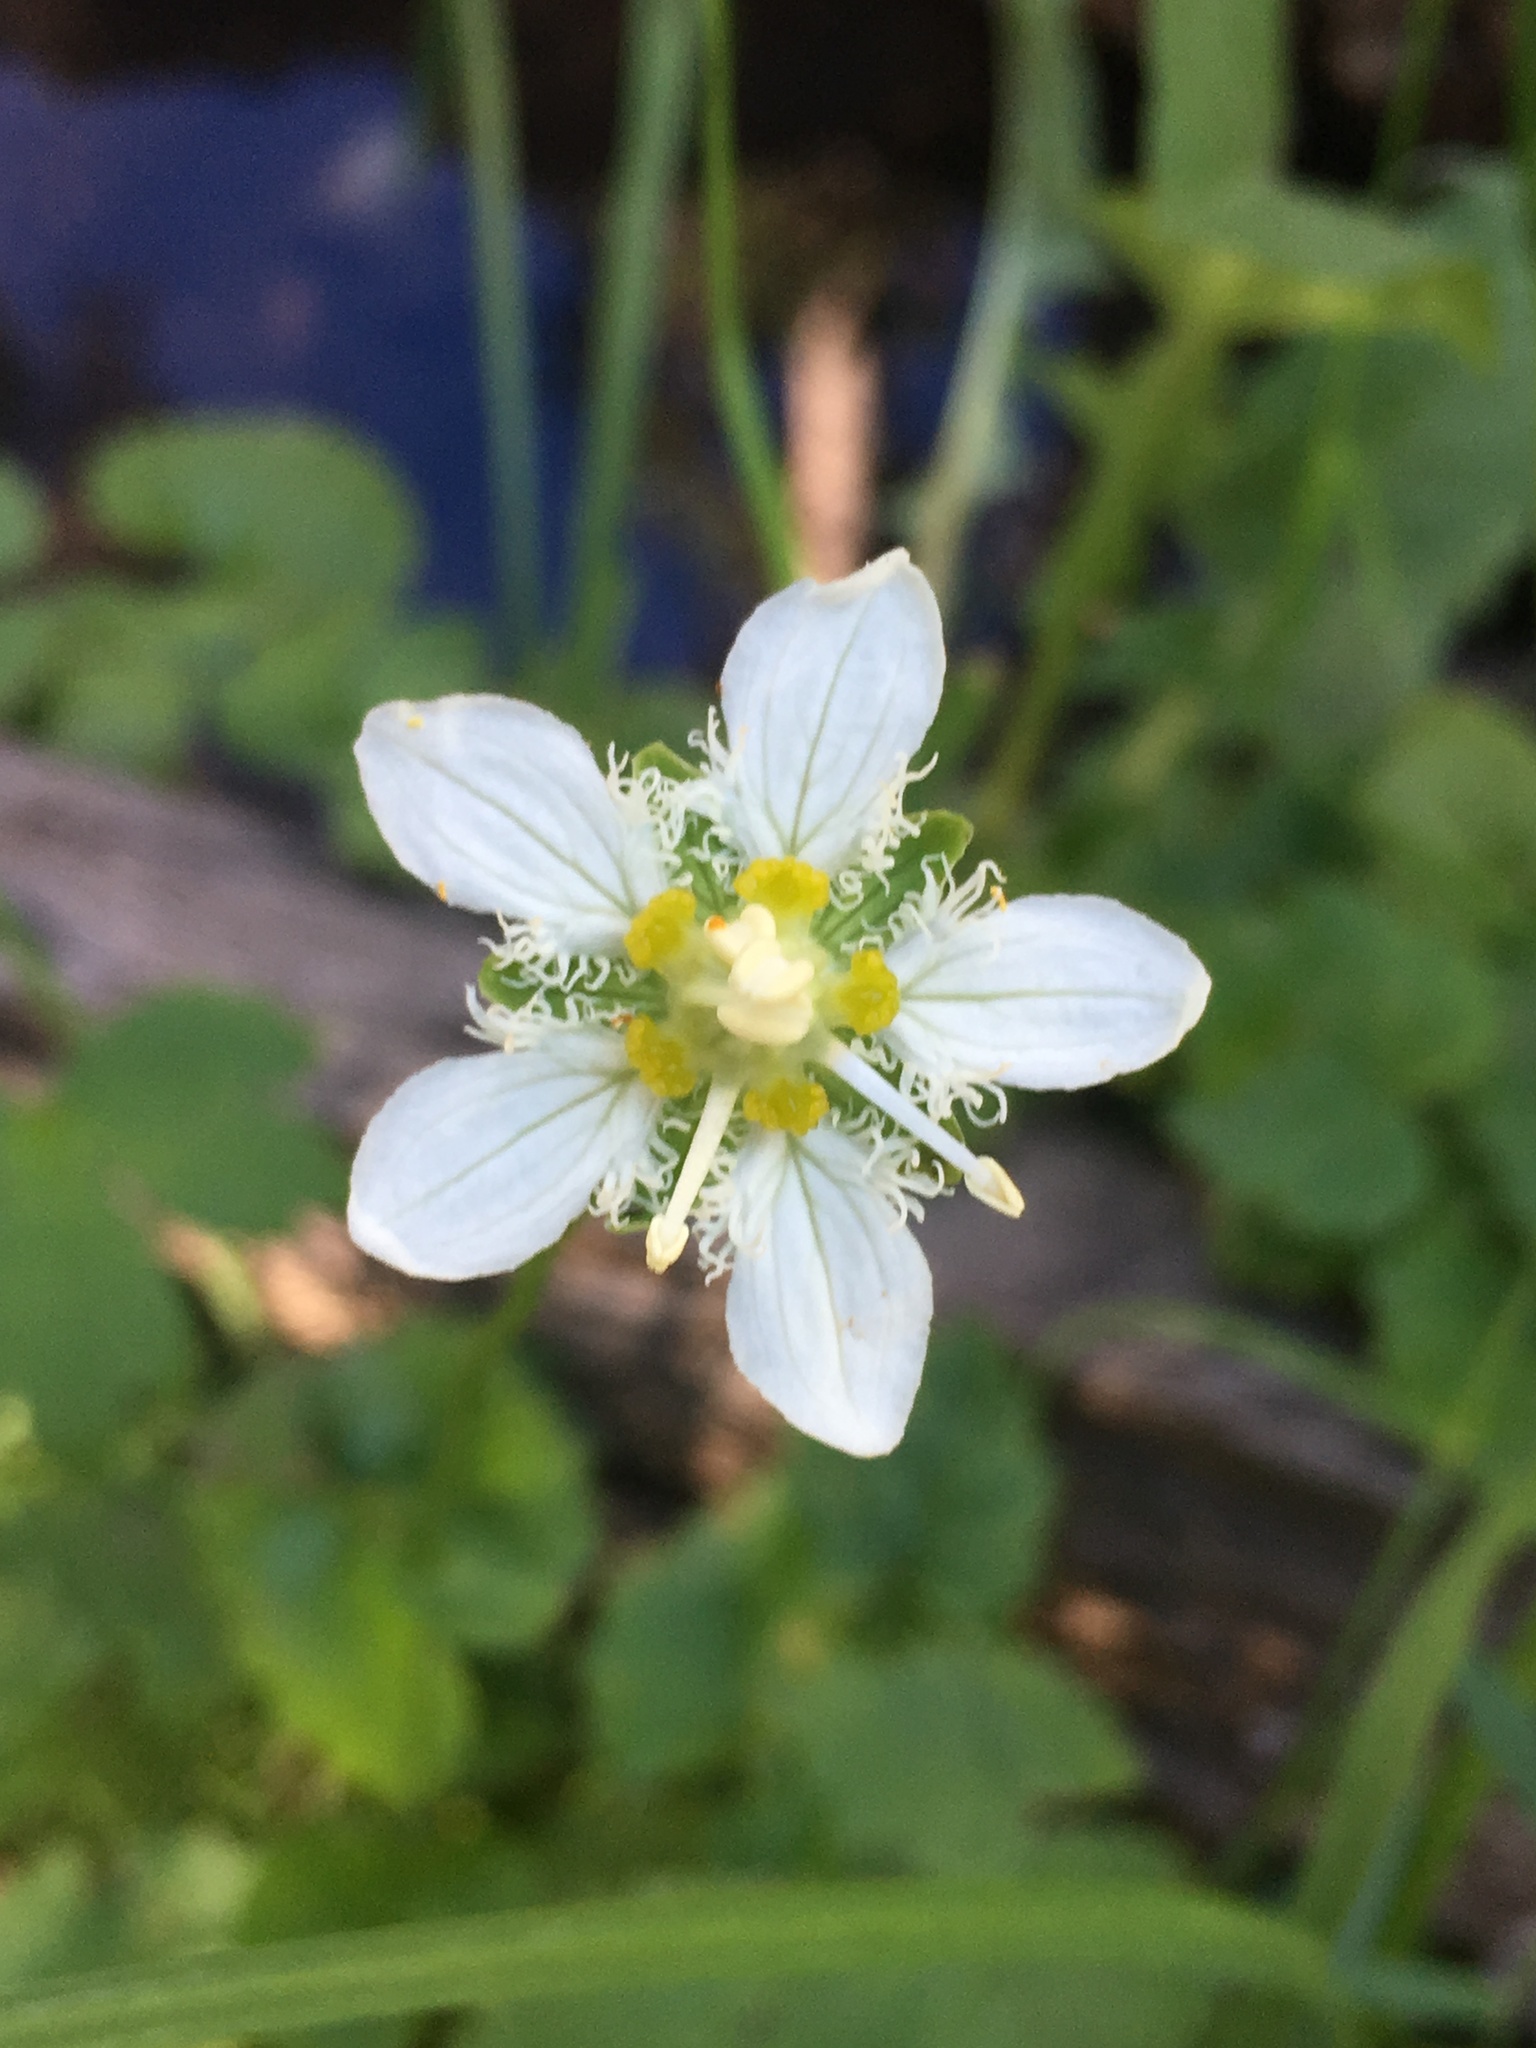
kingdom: Plantae
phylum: Tracheophyta
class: Magnoliopsida
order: Celastrales
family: Parnassiaceae
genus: Parnassia
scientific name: Parnassia fimbriata
